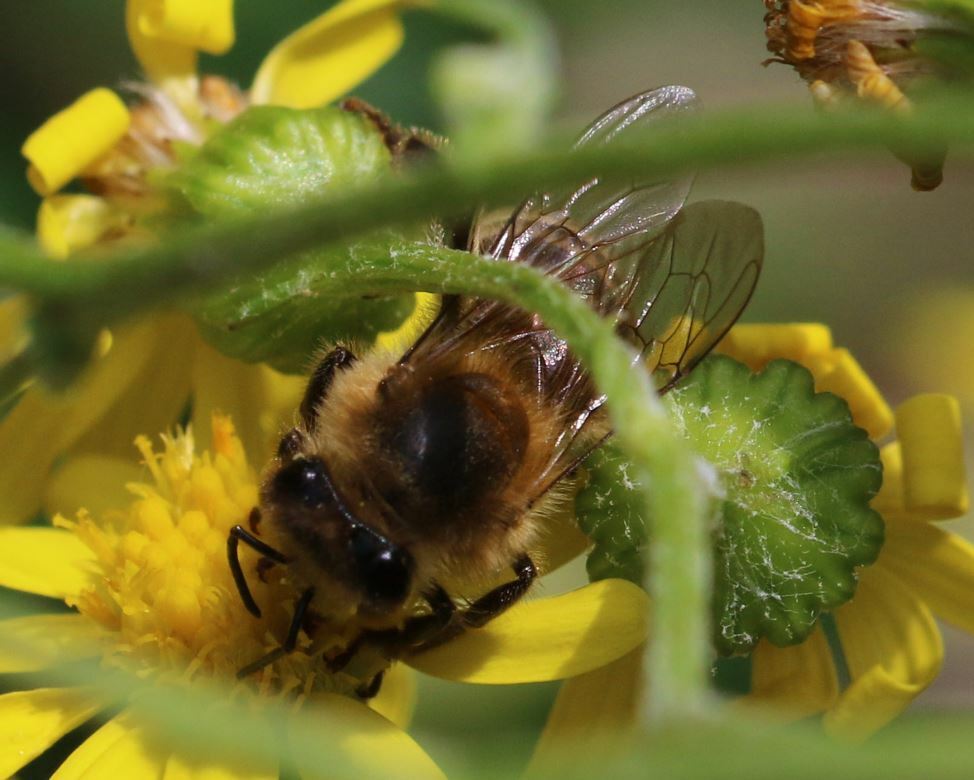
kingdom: Animalia
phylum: Arthropoda
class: Insecta
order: Hymenoptera
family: Apidae
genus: Apis
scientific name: Apis mellifera
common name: Honey bee
